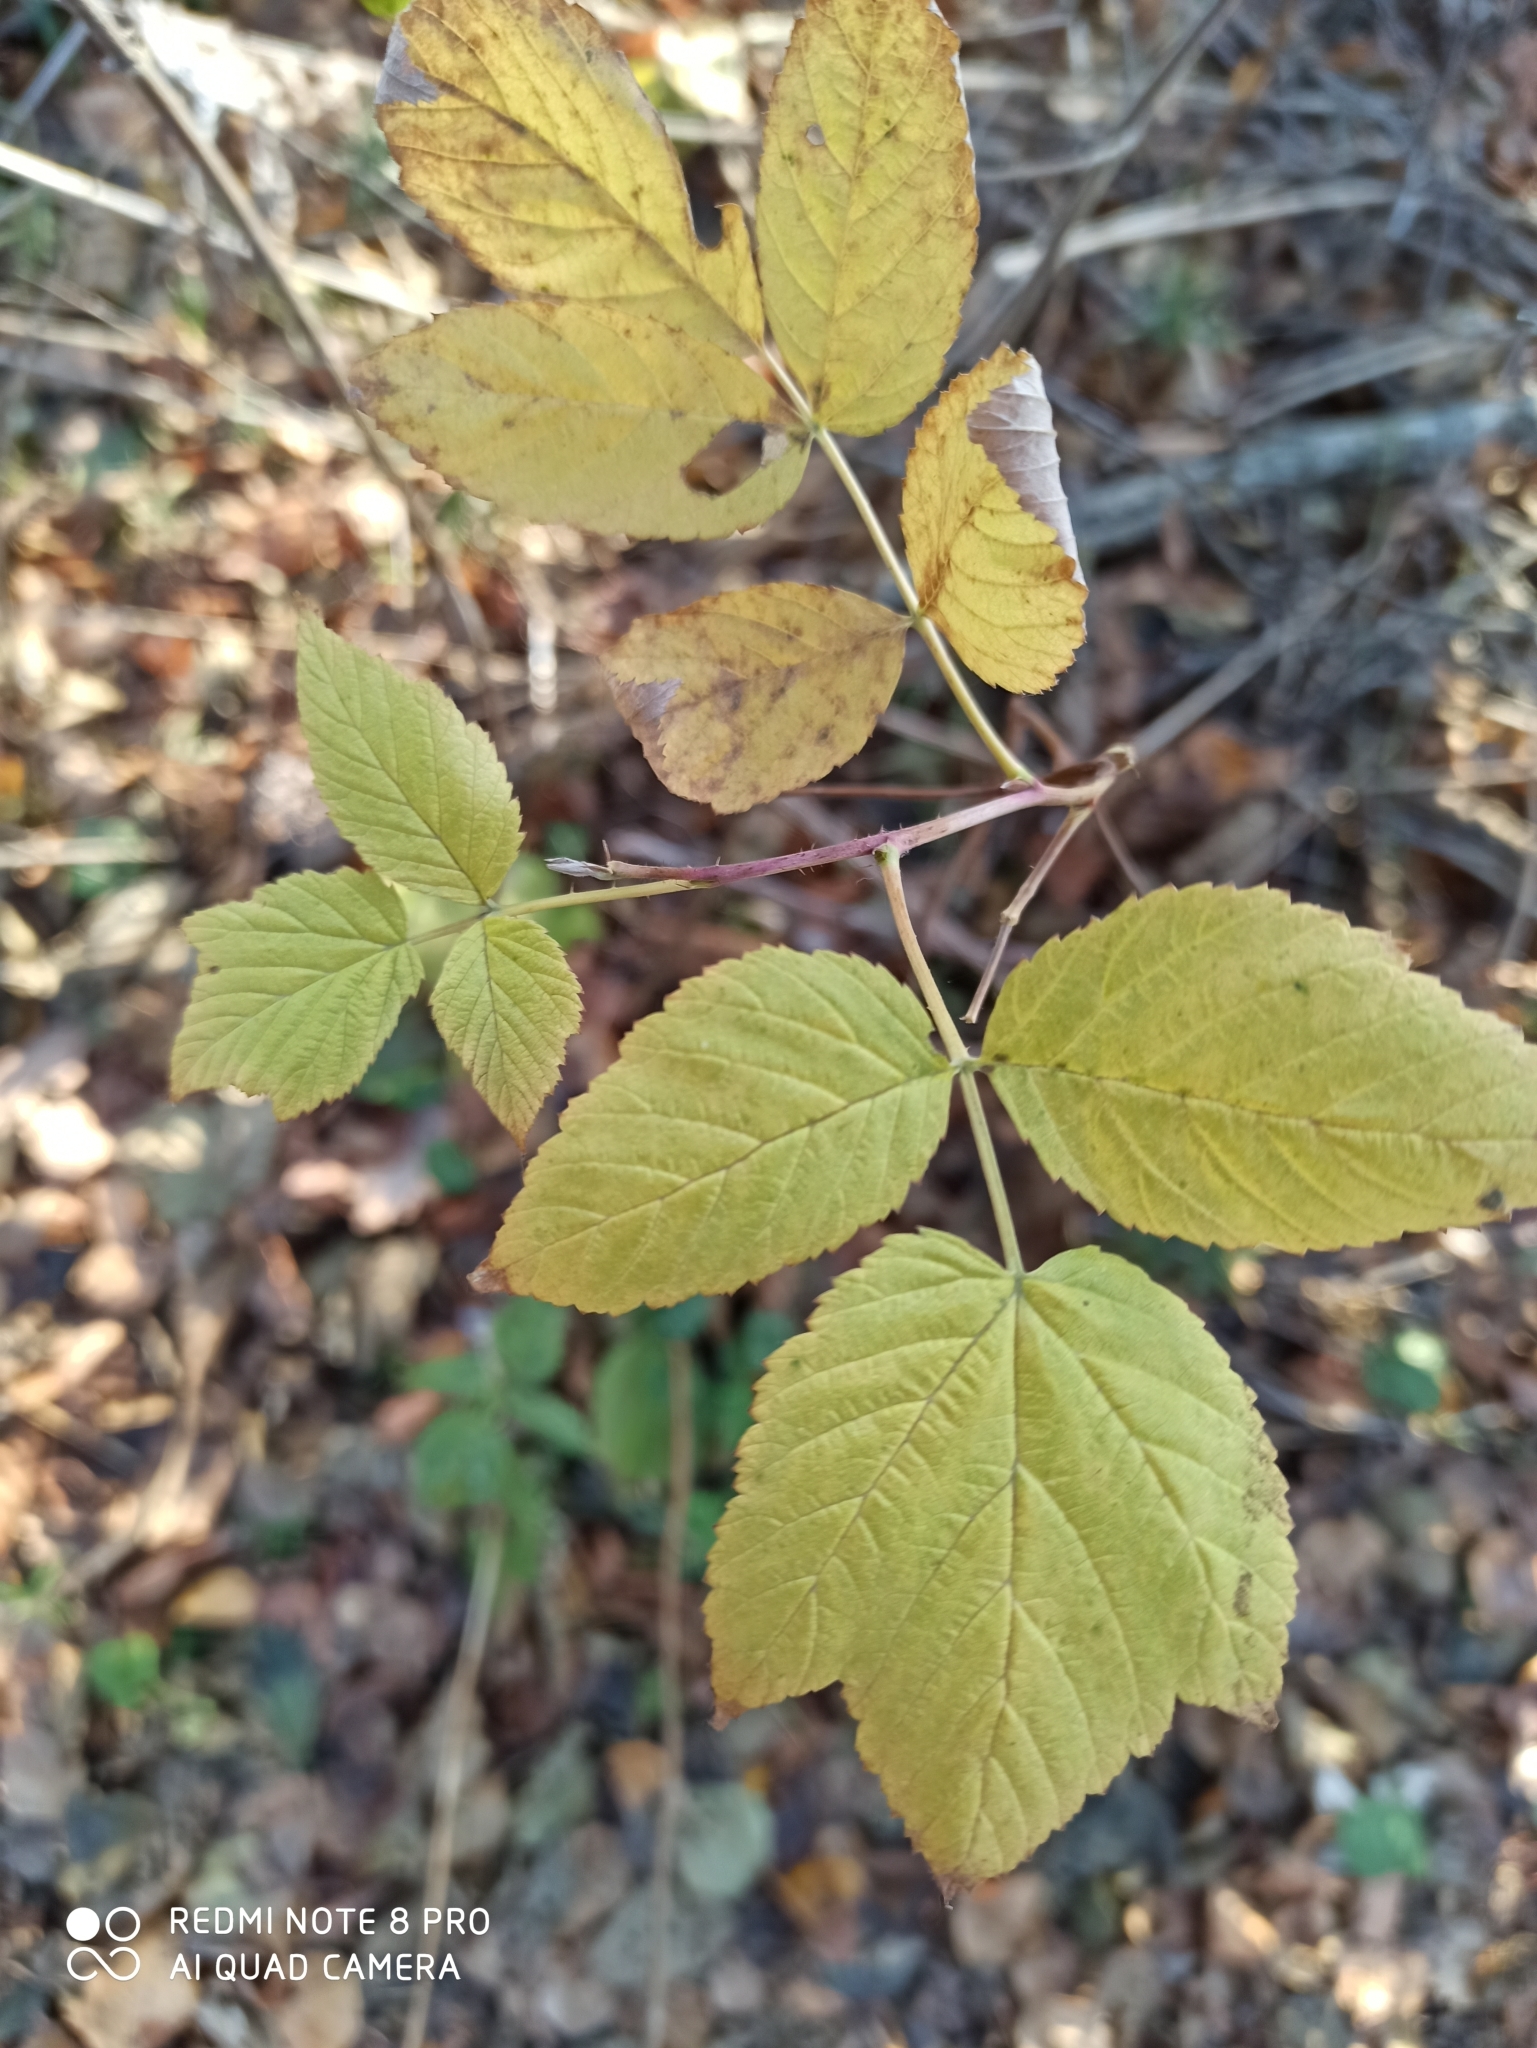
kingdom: Plantae
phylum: Tracheophyta
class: Magnoliopsida
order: Rosales
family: Rosaceae
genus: Rubus
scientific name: Rubus idaeus
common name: Raspberry
